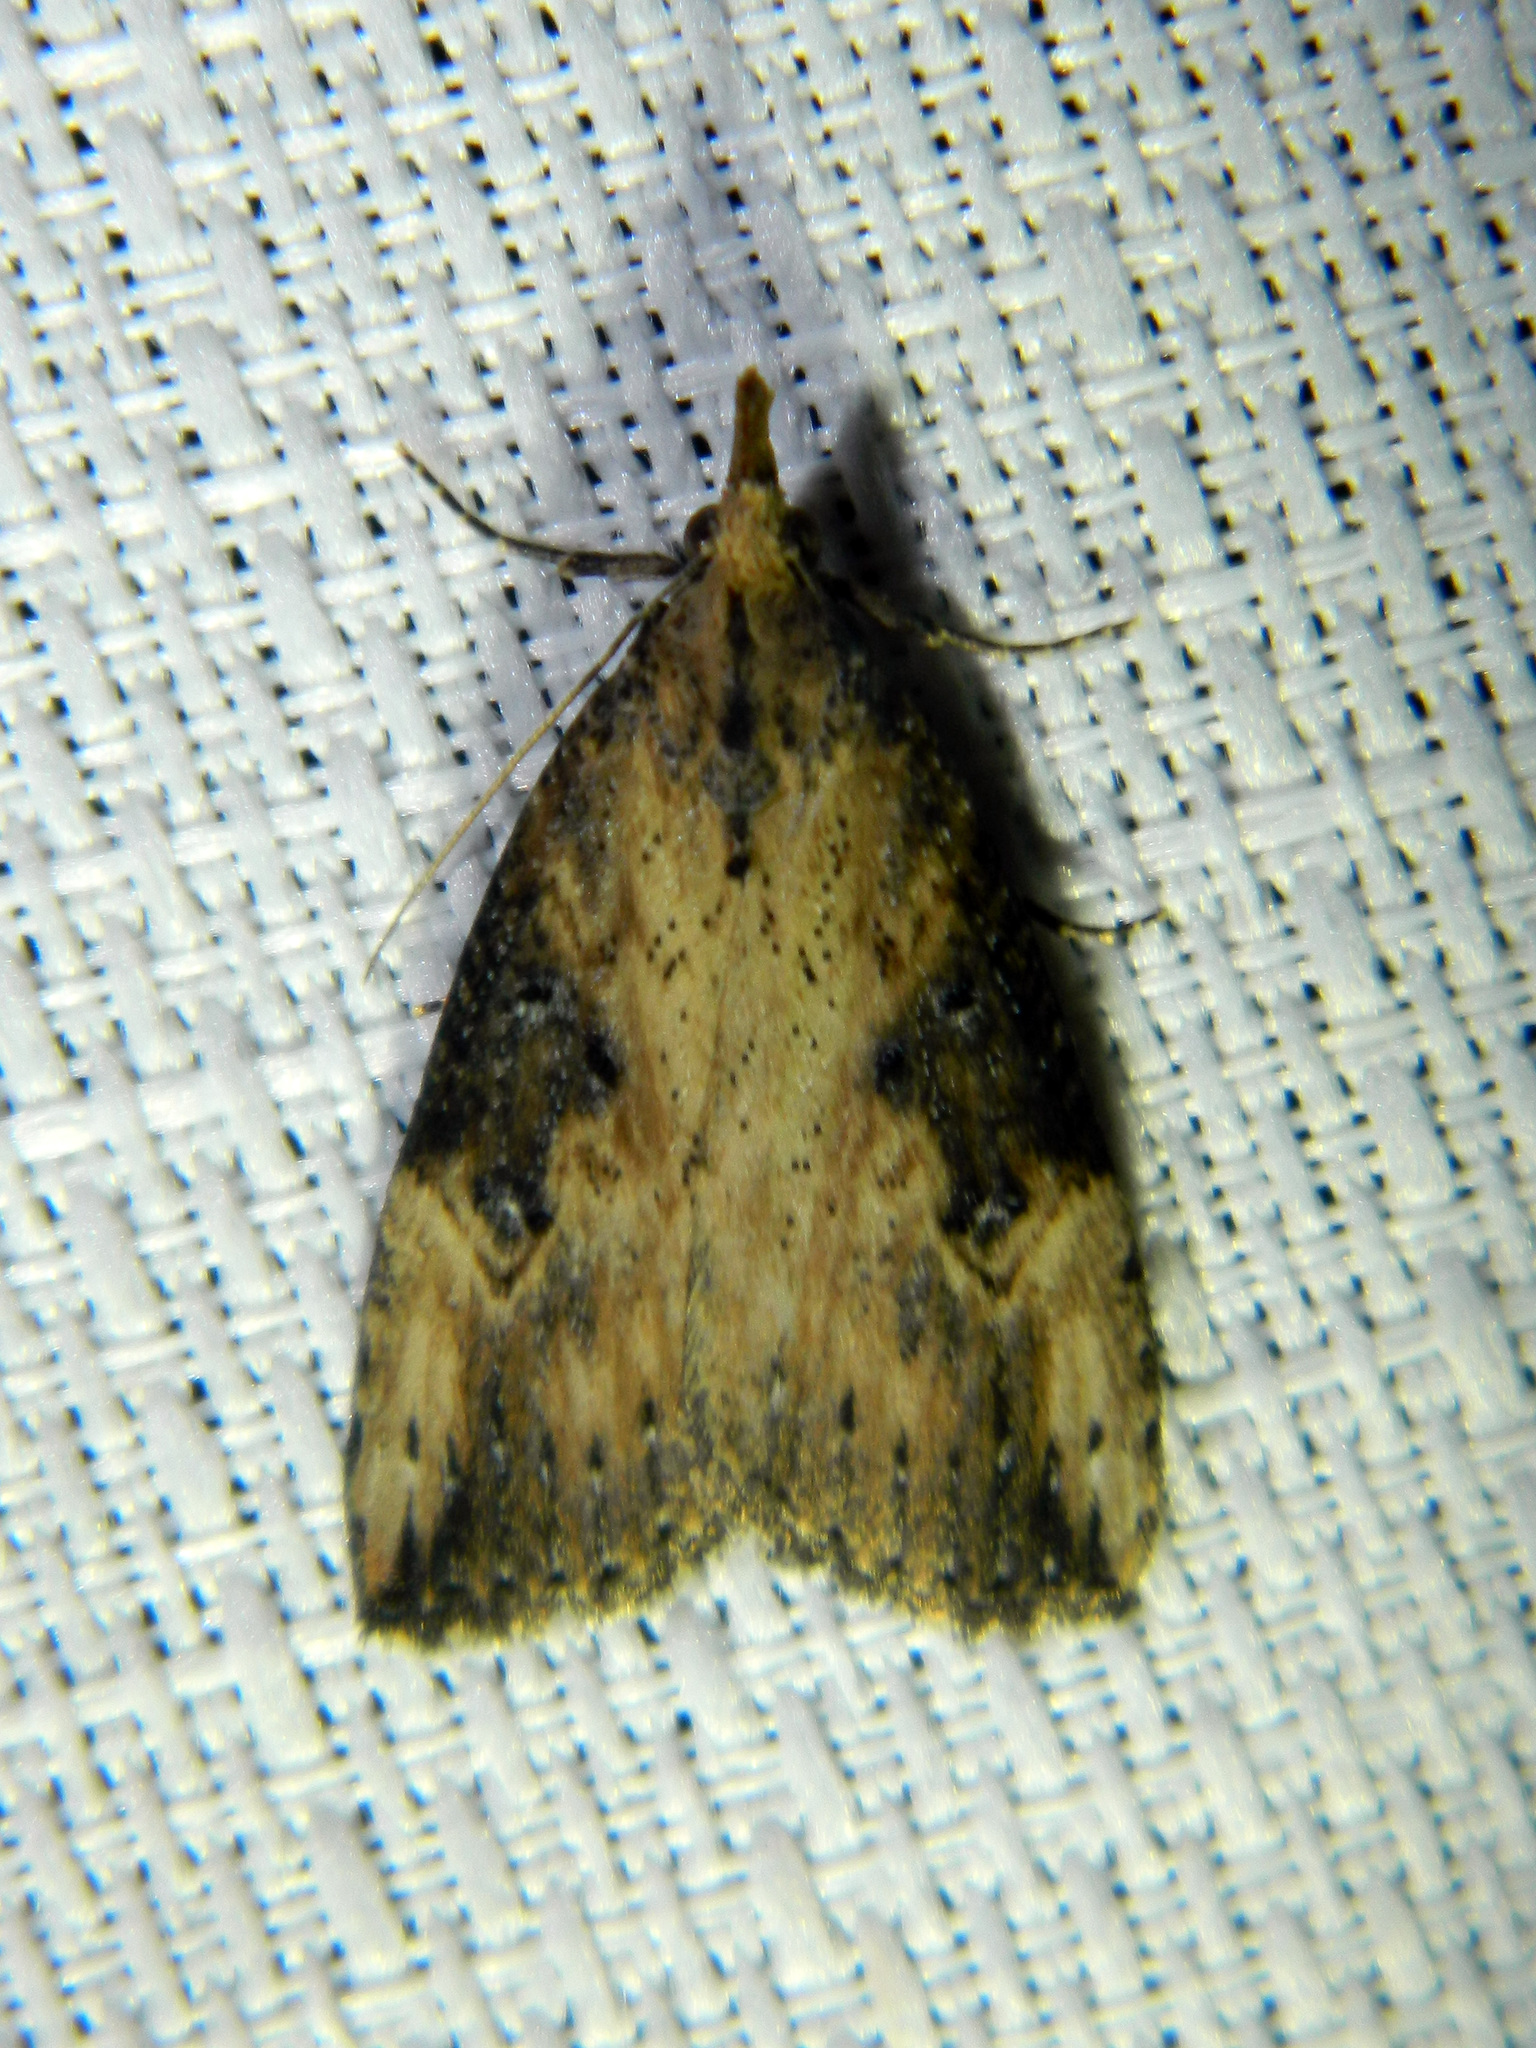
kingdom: Animalia
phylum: Arthropoda
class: Insecta
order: Lepidoptera
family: Erebidae
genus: Hypena
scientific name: Hypena humuli
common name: Hop vine snout
